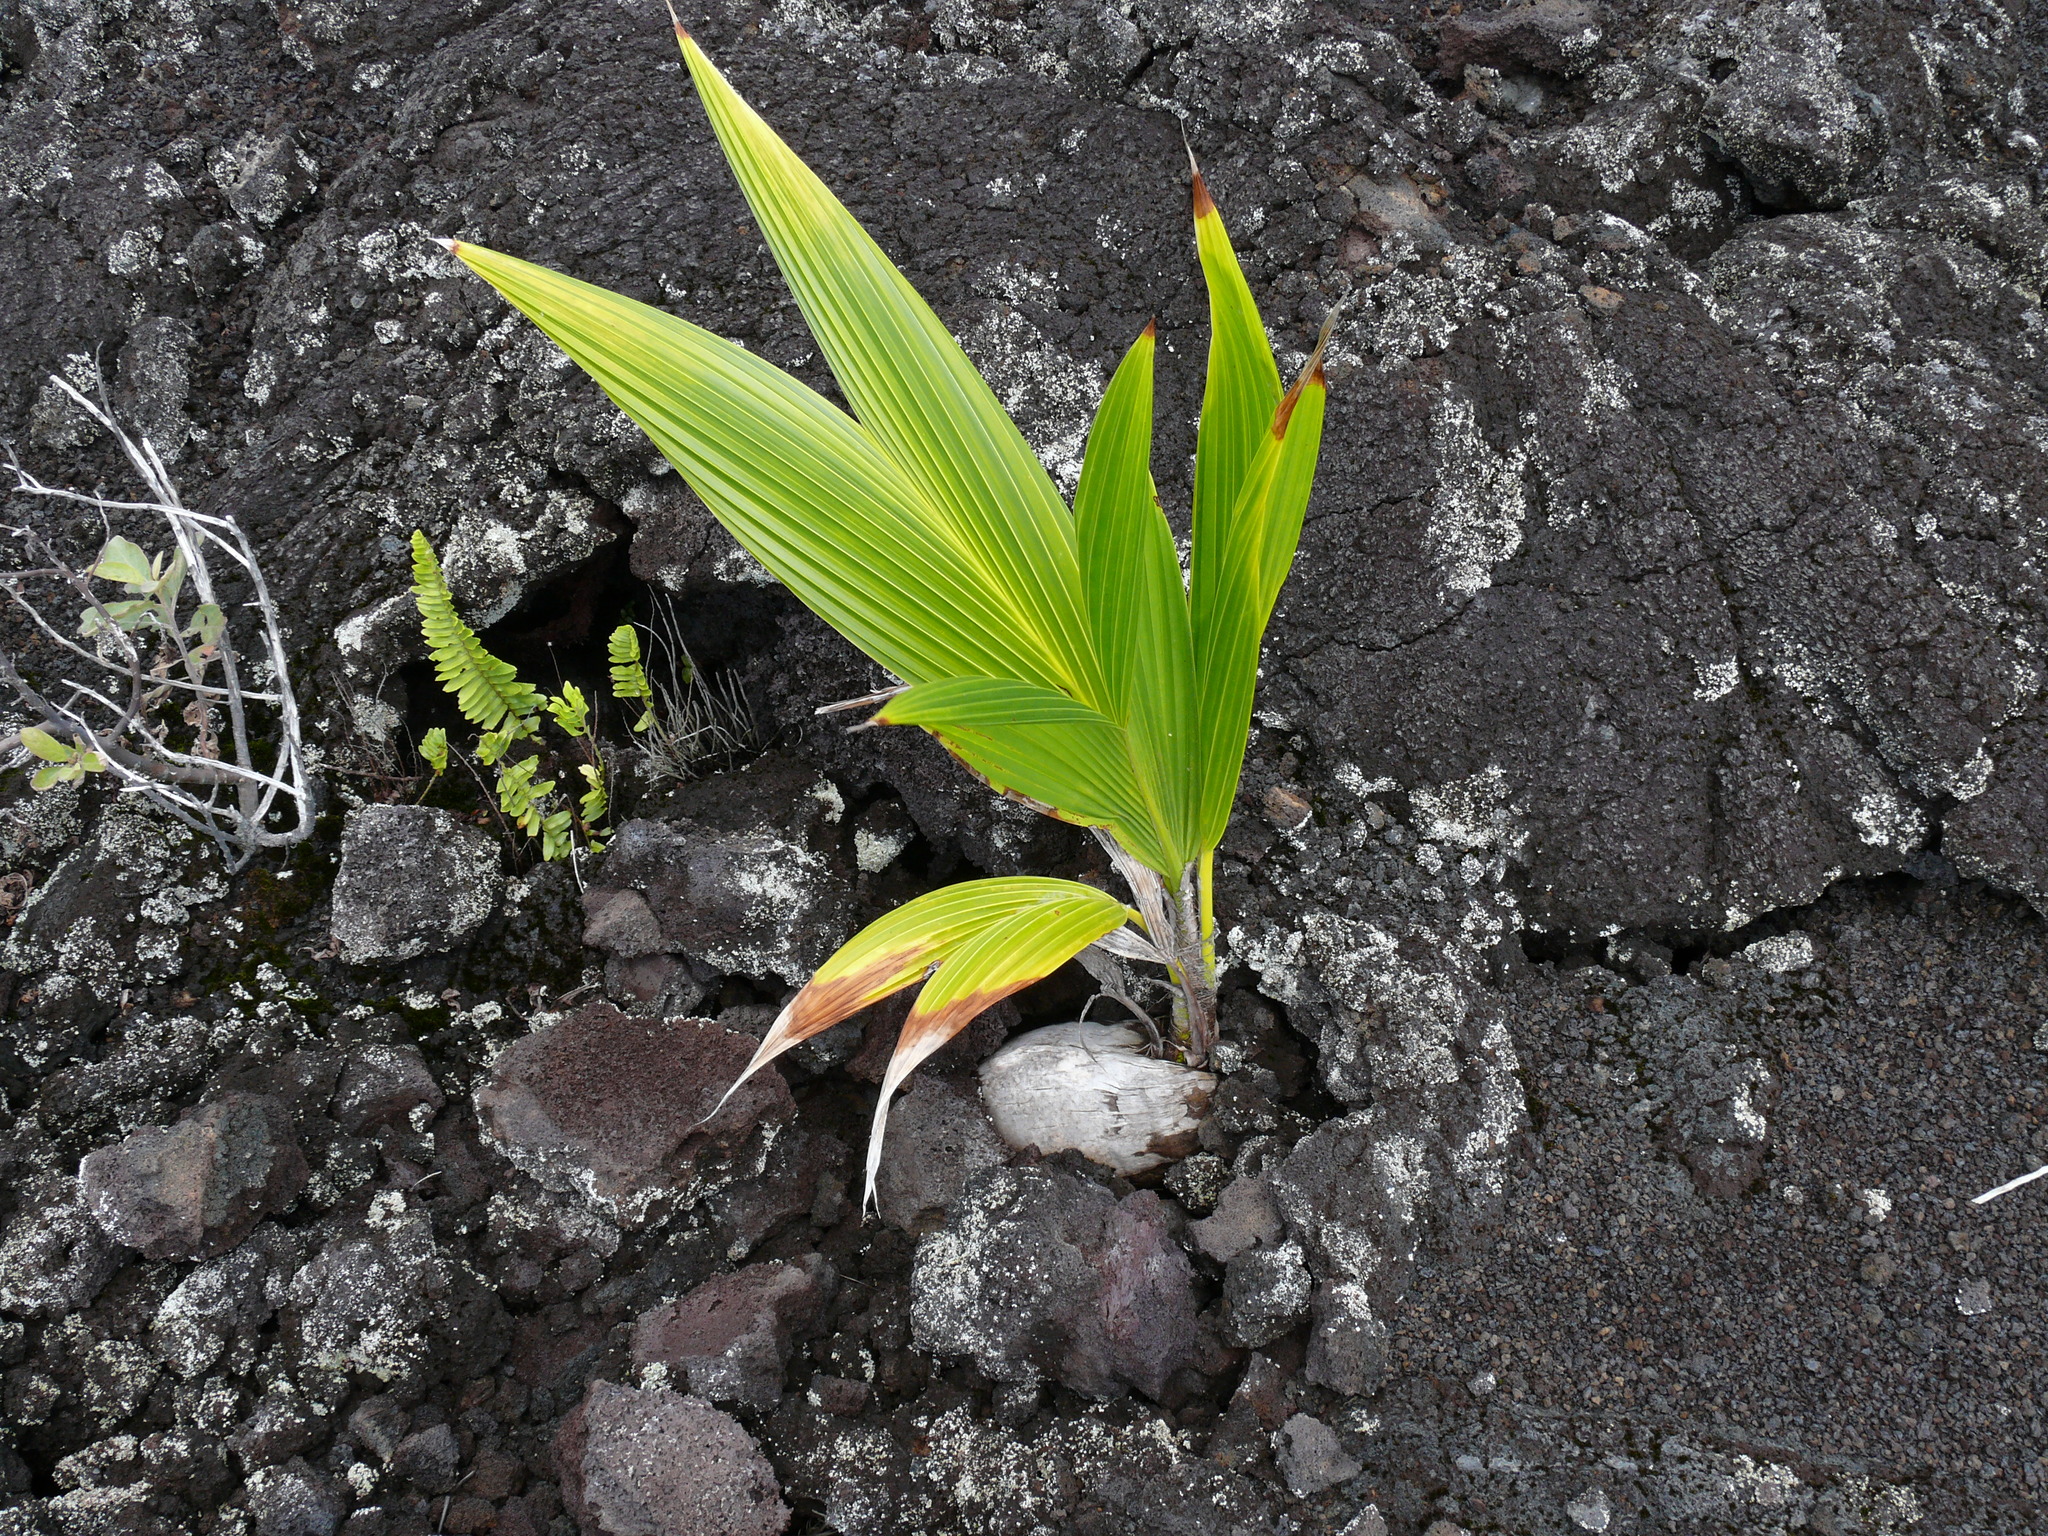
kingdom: Plantae
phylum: Tracheophyta
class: Liliopsida
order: Arecales
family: Arecaceae
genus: Cocos
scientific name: Cocos nucifera
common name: Coconut palm
